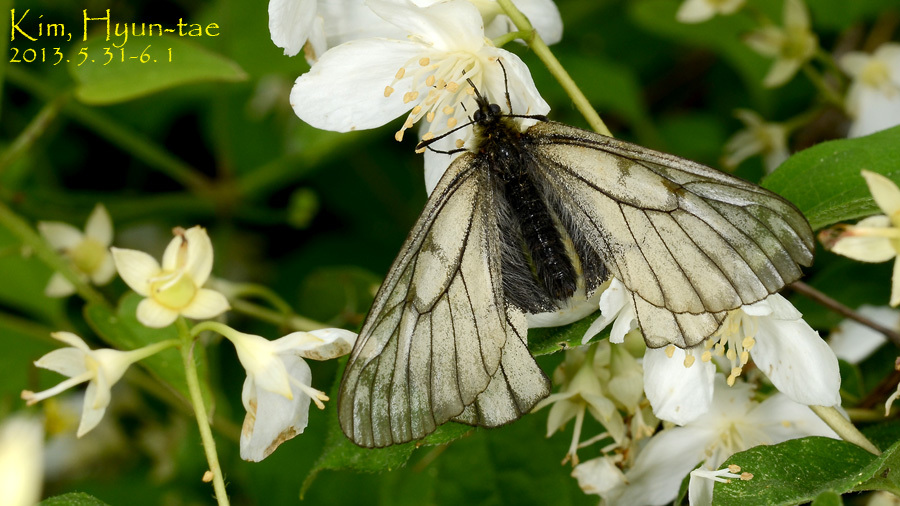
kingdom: Animalia
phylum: Arthropoda
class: Insecta
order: Lepidoptera
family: Papilionidae
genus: Parnassius
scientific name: Parnassius stubbendorfii
